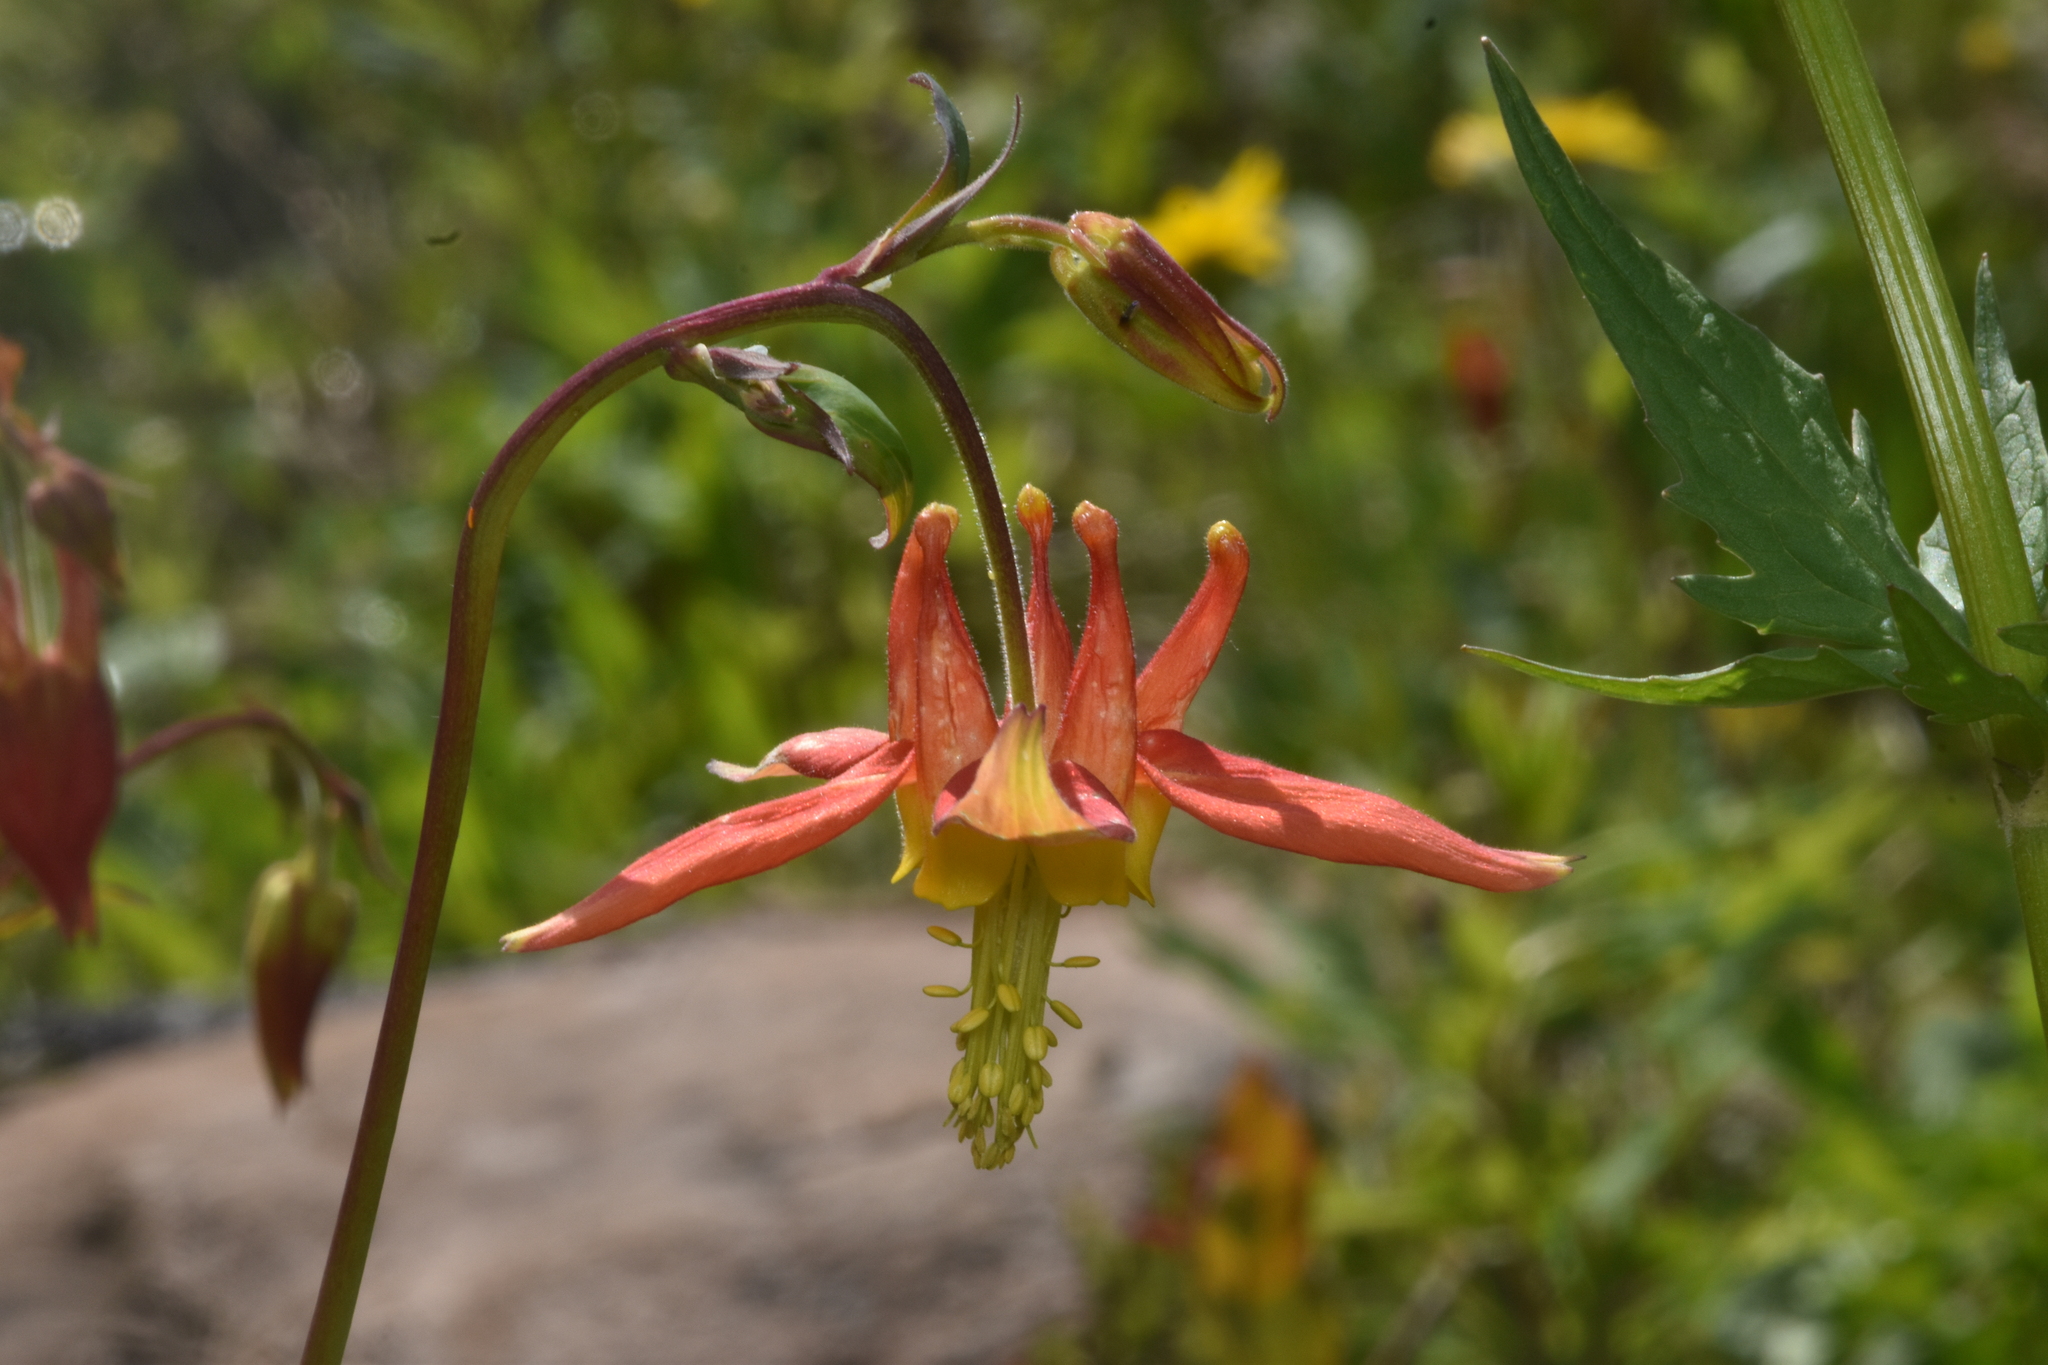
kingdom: Plantae
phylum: Tracheophyta
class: Magnoliopsida
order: Ranunculales
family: Ranunculaceae
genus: Aquilegia
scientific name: Aquilegia formosa
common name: Sitka columbine
